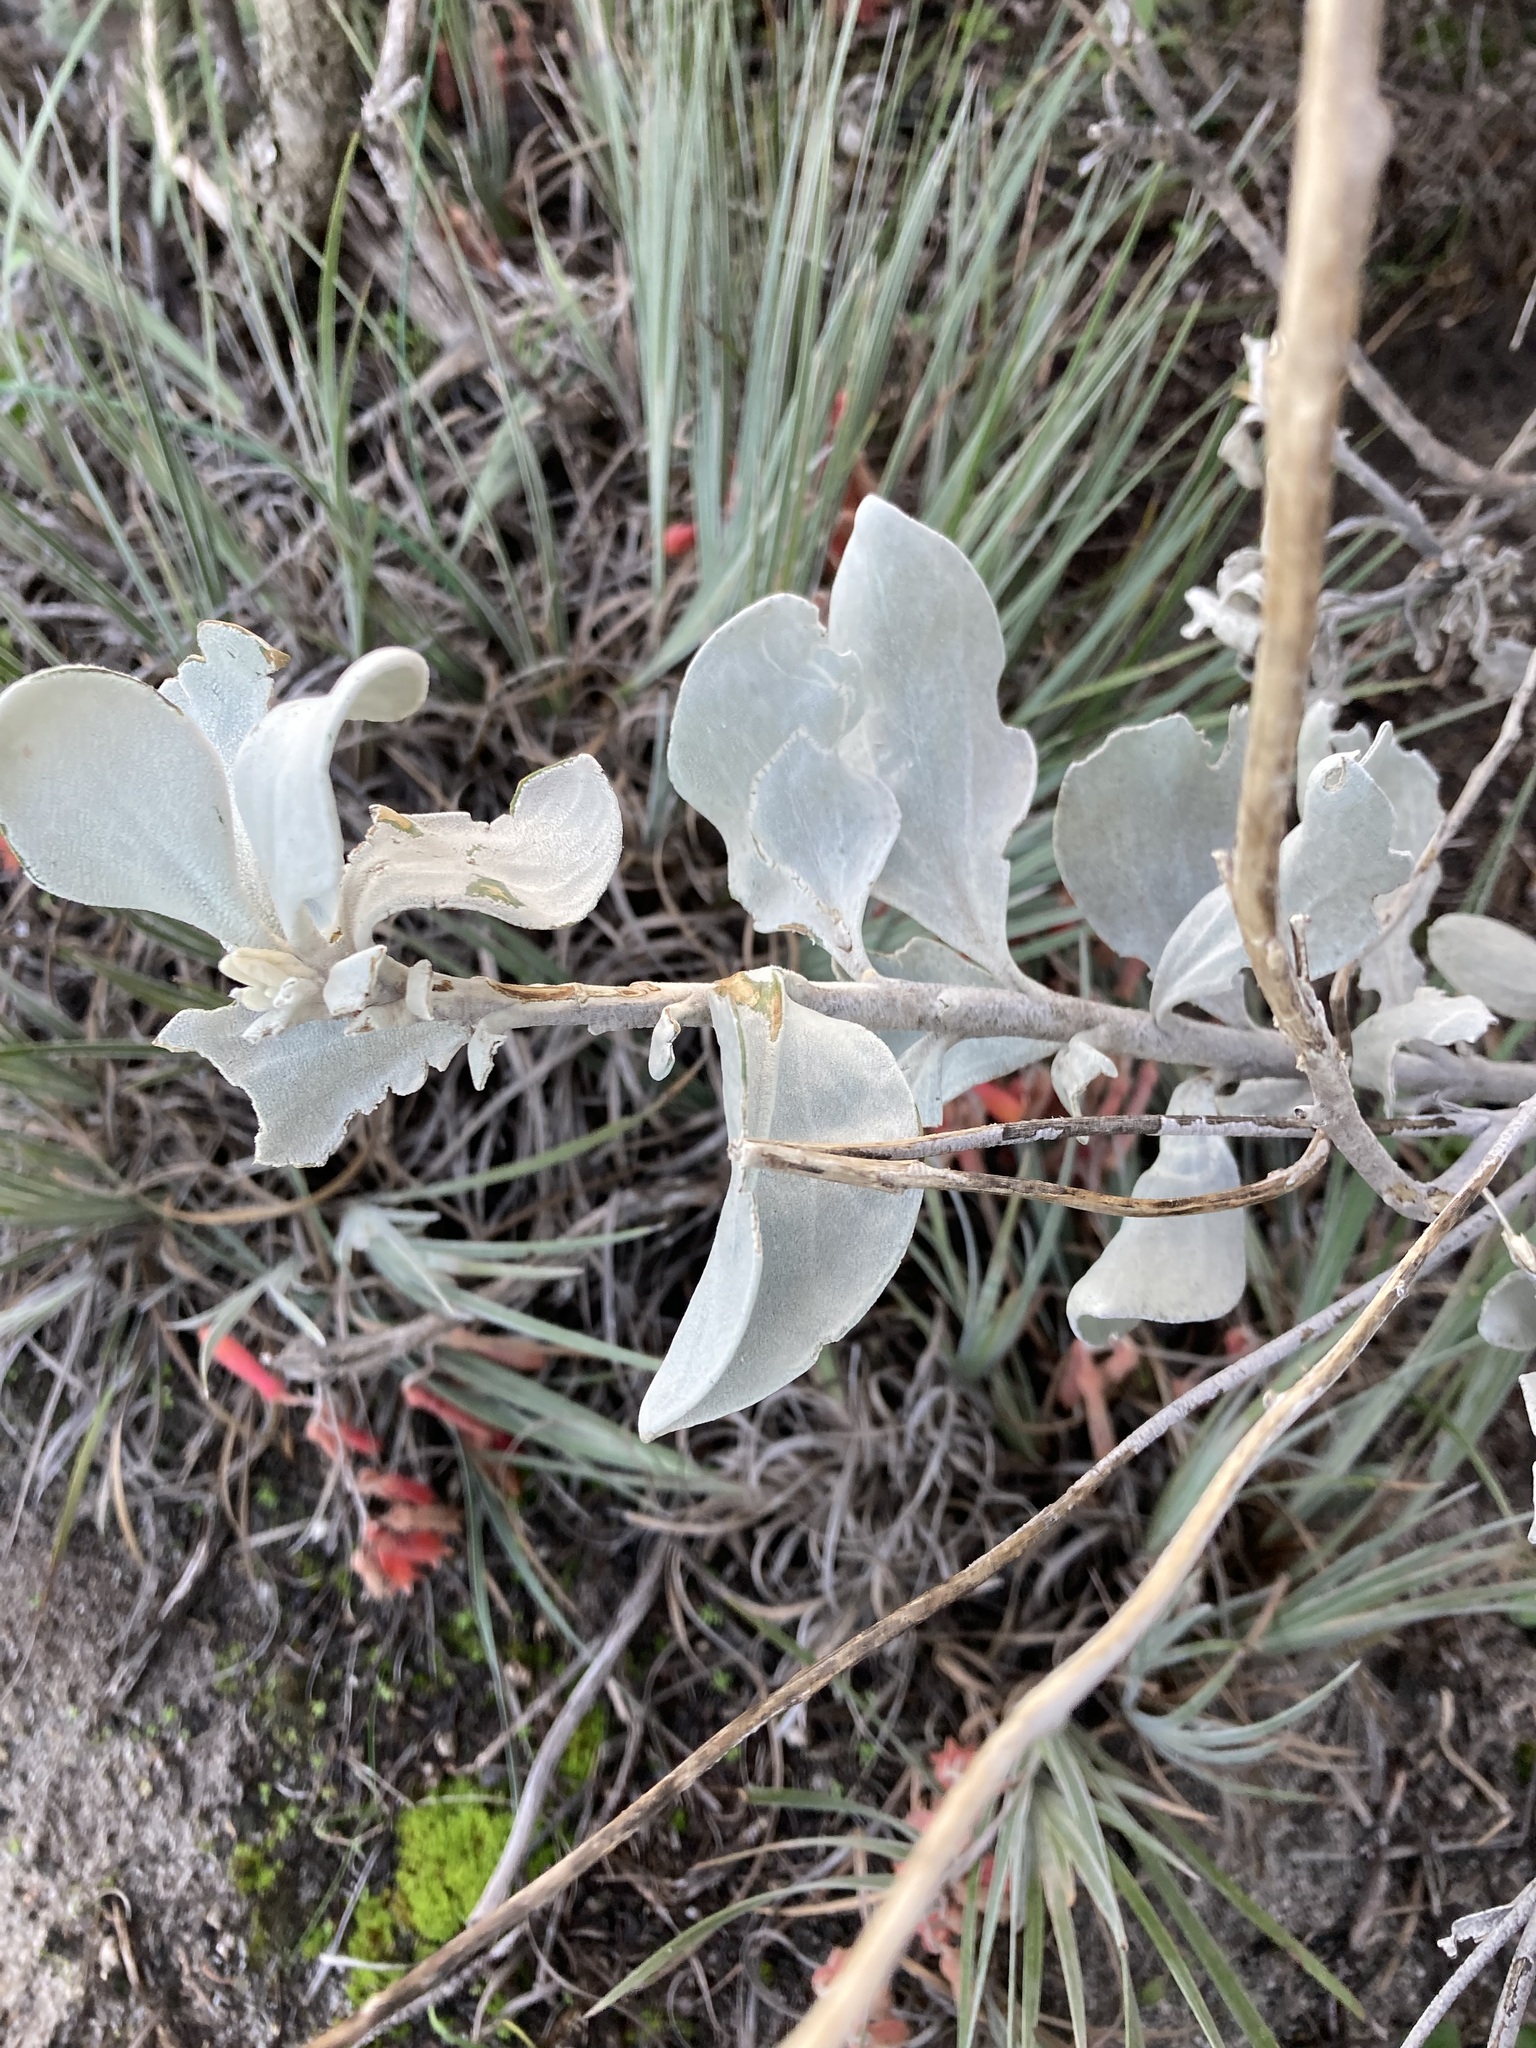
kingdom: Plantae
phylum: Tracheophyta
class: Magnoliopsida
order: Asterales
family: Goodeniaceae
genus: Goodenia
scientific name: Goodenia reinwardtii
